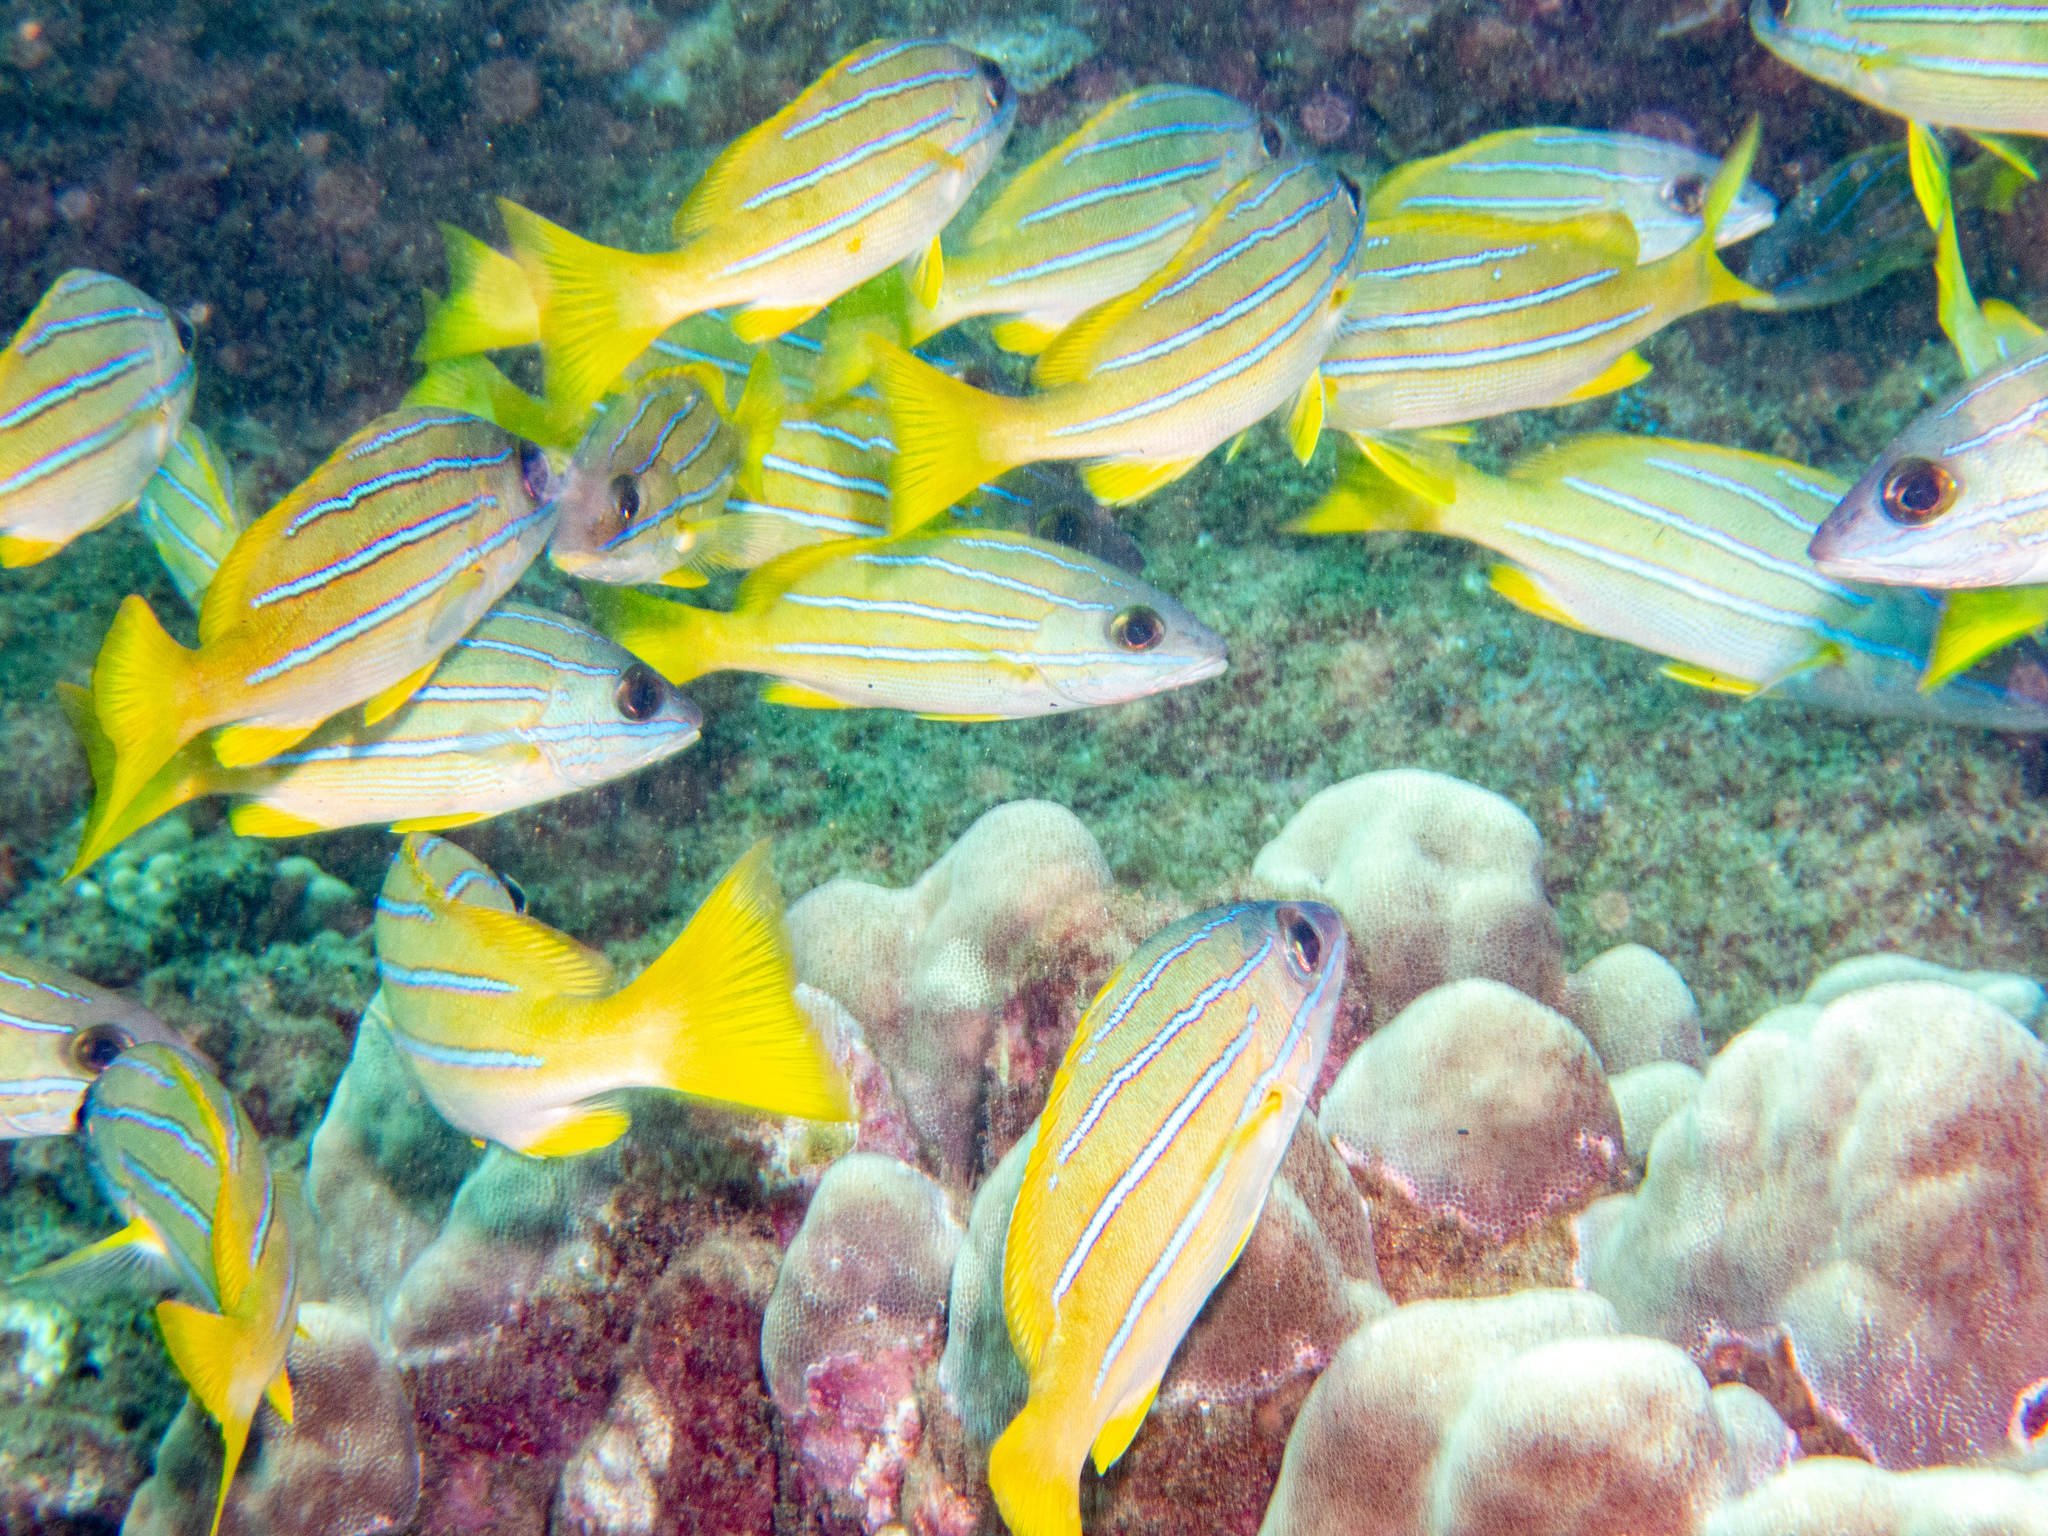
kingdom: Animalia
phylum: Chordata
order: Perciformes
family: Lutjanidae
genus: Lutjanus
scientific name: Lutjanus kasmira
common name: Common bluestripe snapper
